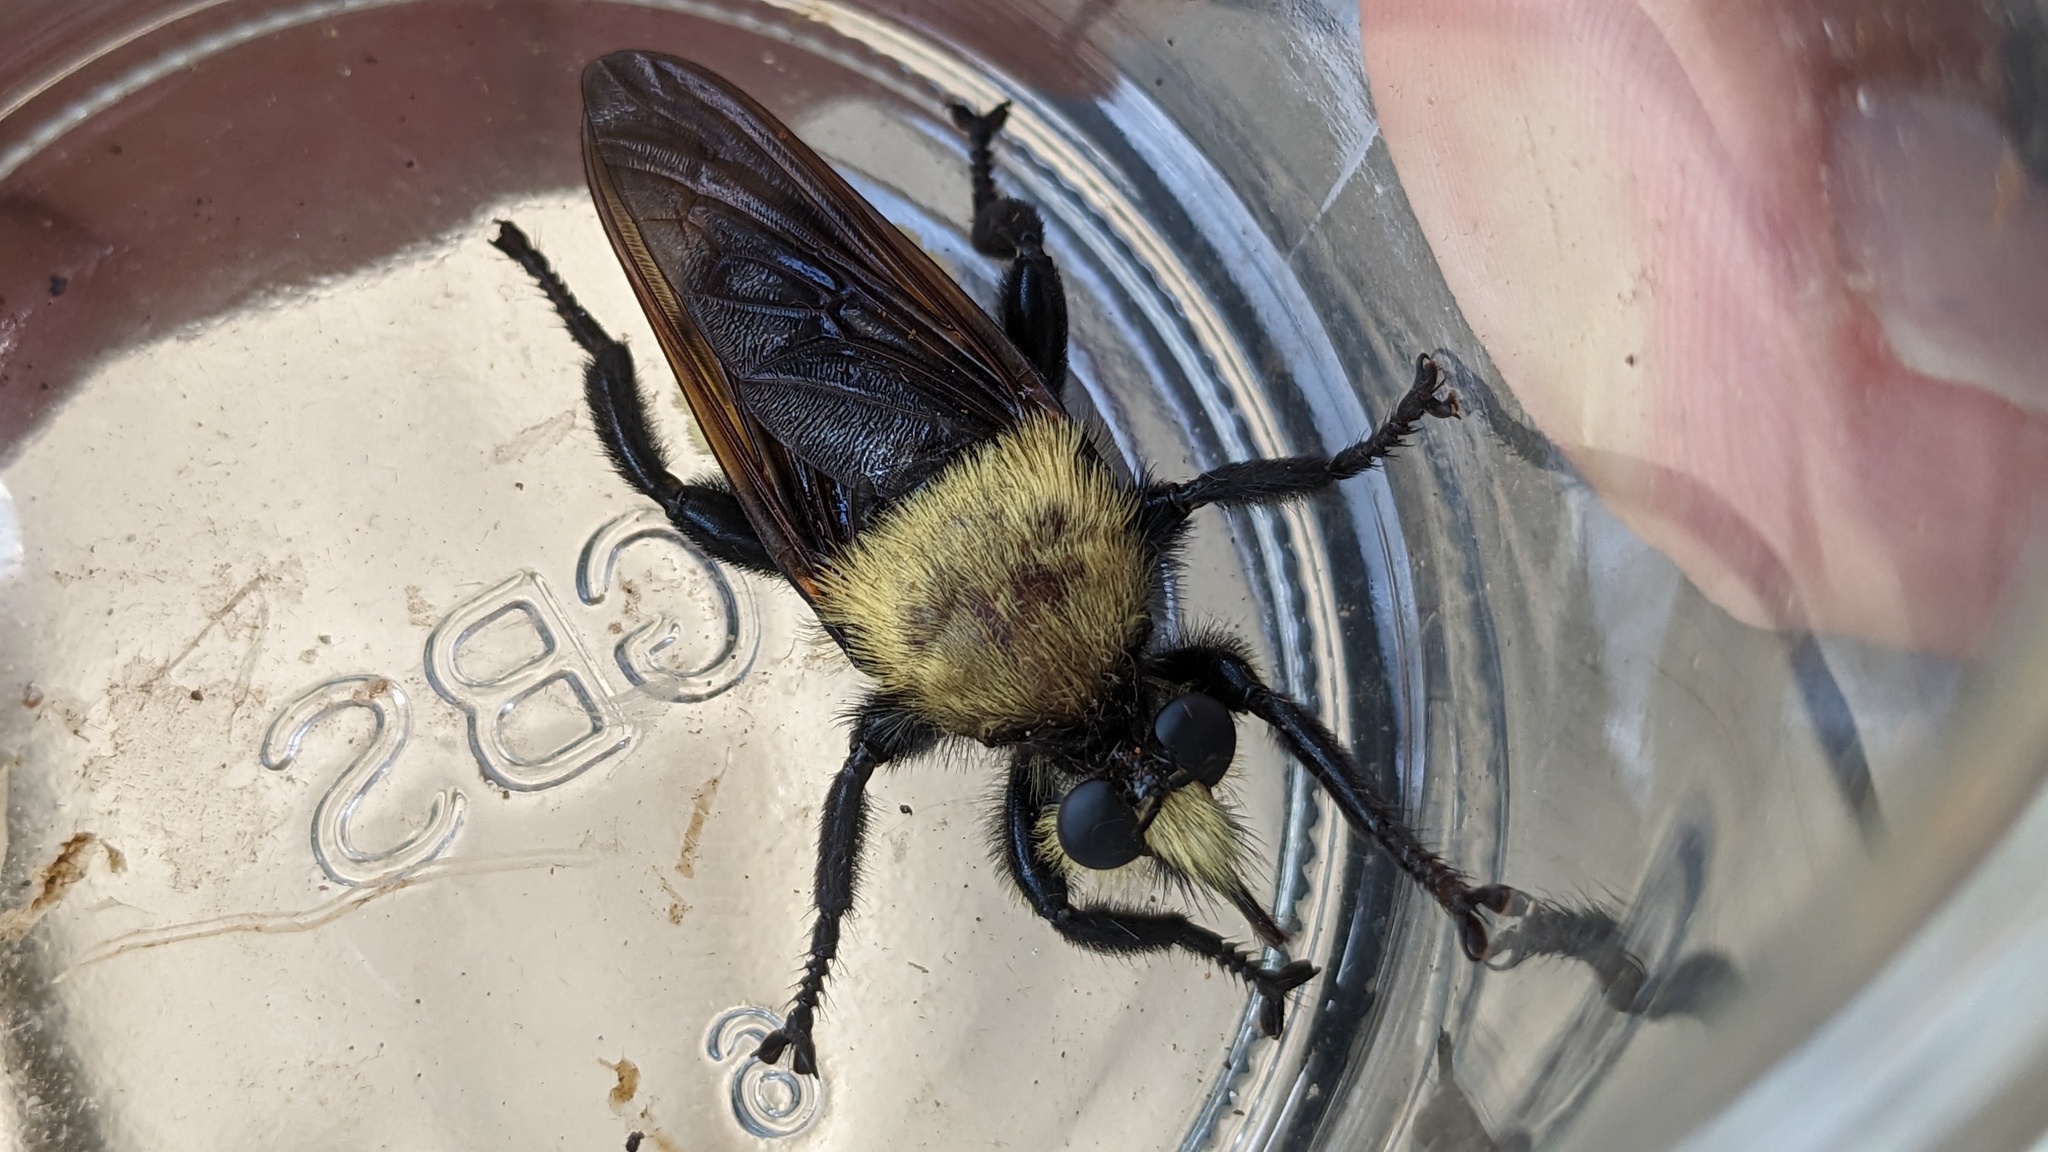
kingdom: Animalia
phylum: Arthropoda
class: Insecta
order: Diptera
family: Asilidae
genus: Laphria
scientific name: Laphria lata
